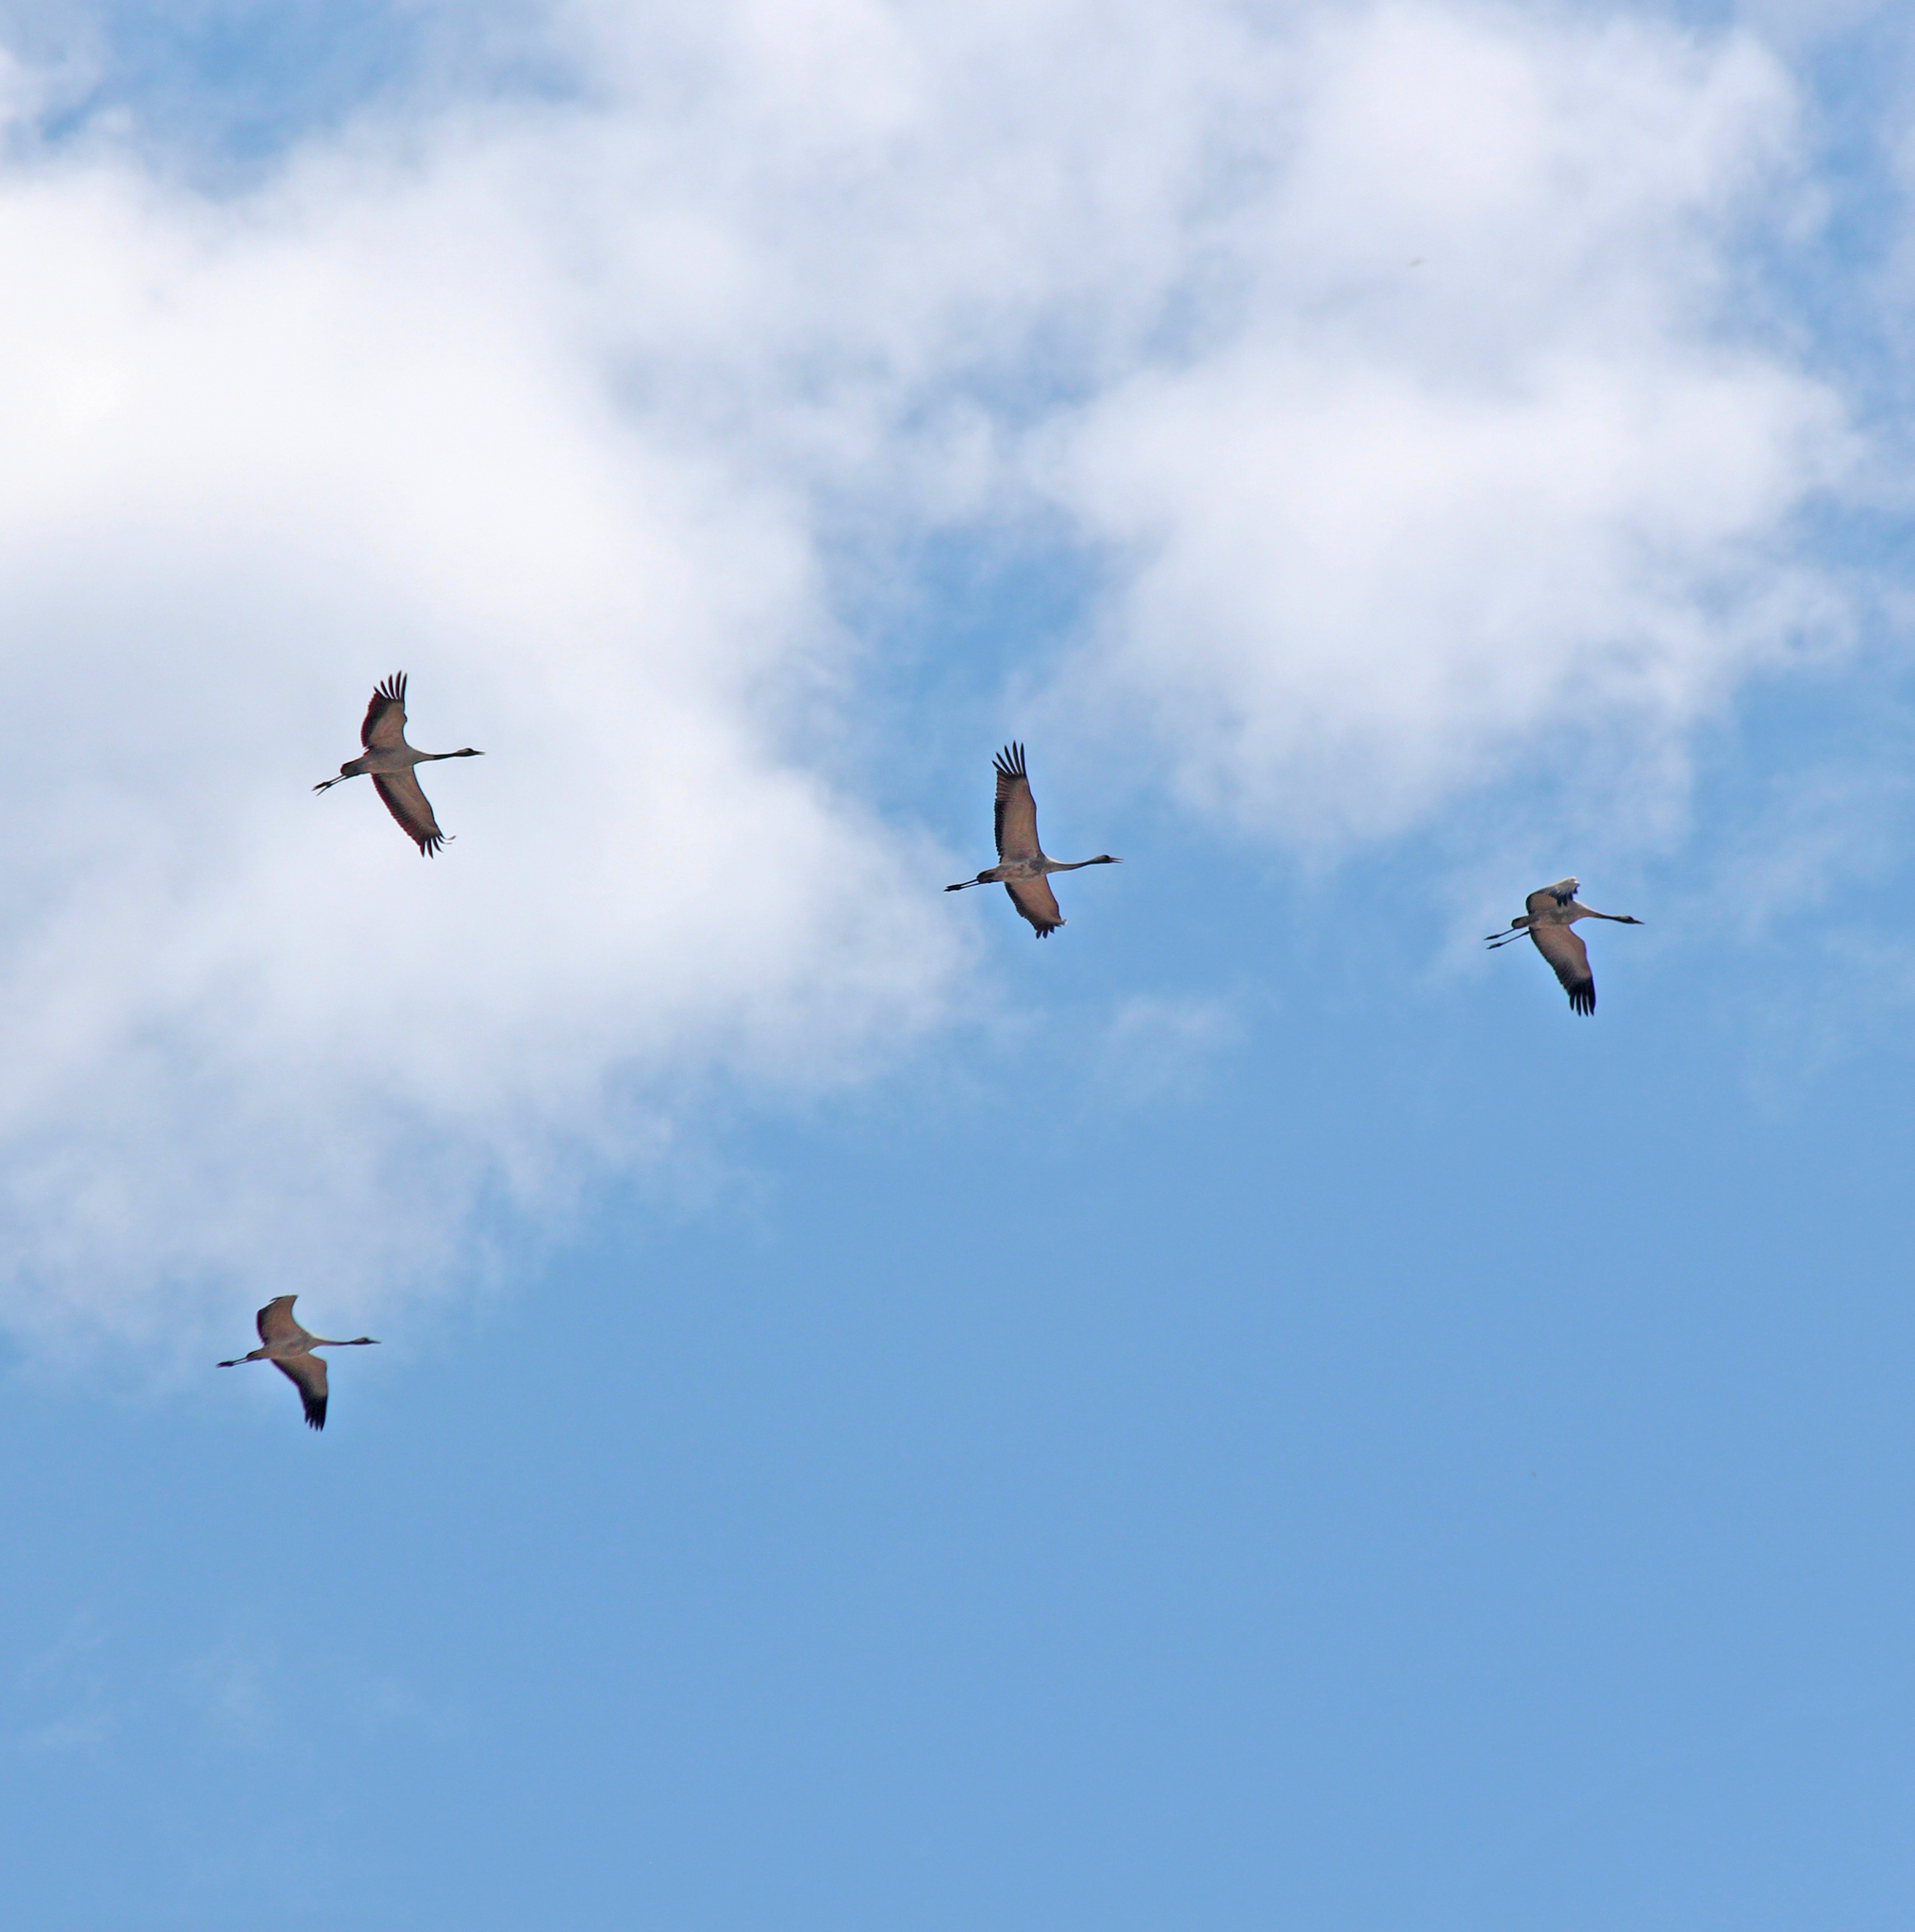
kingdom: Animalia
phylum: Chordata
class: Aves
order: Gruiformes
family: Gruidae
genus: Grus
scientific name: Grus grus
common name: Common crane
